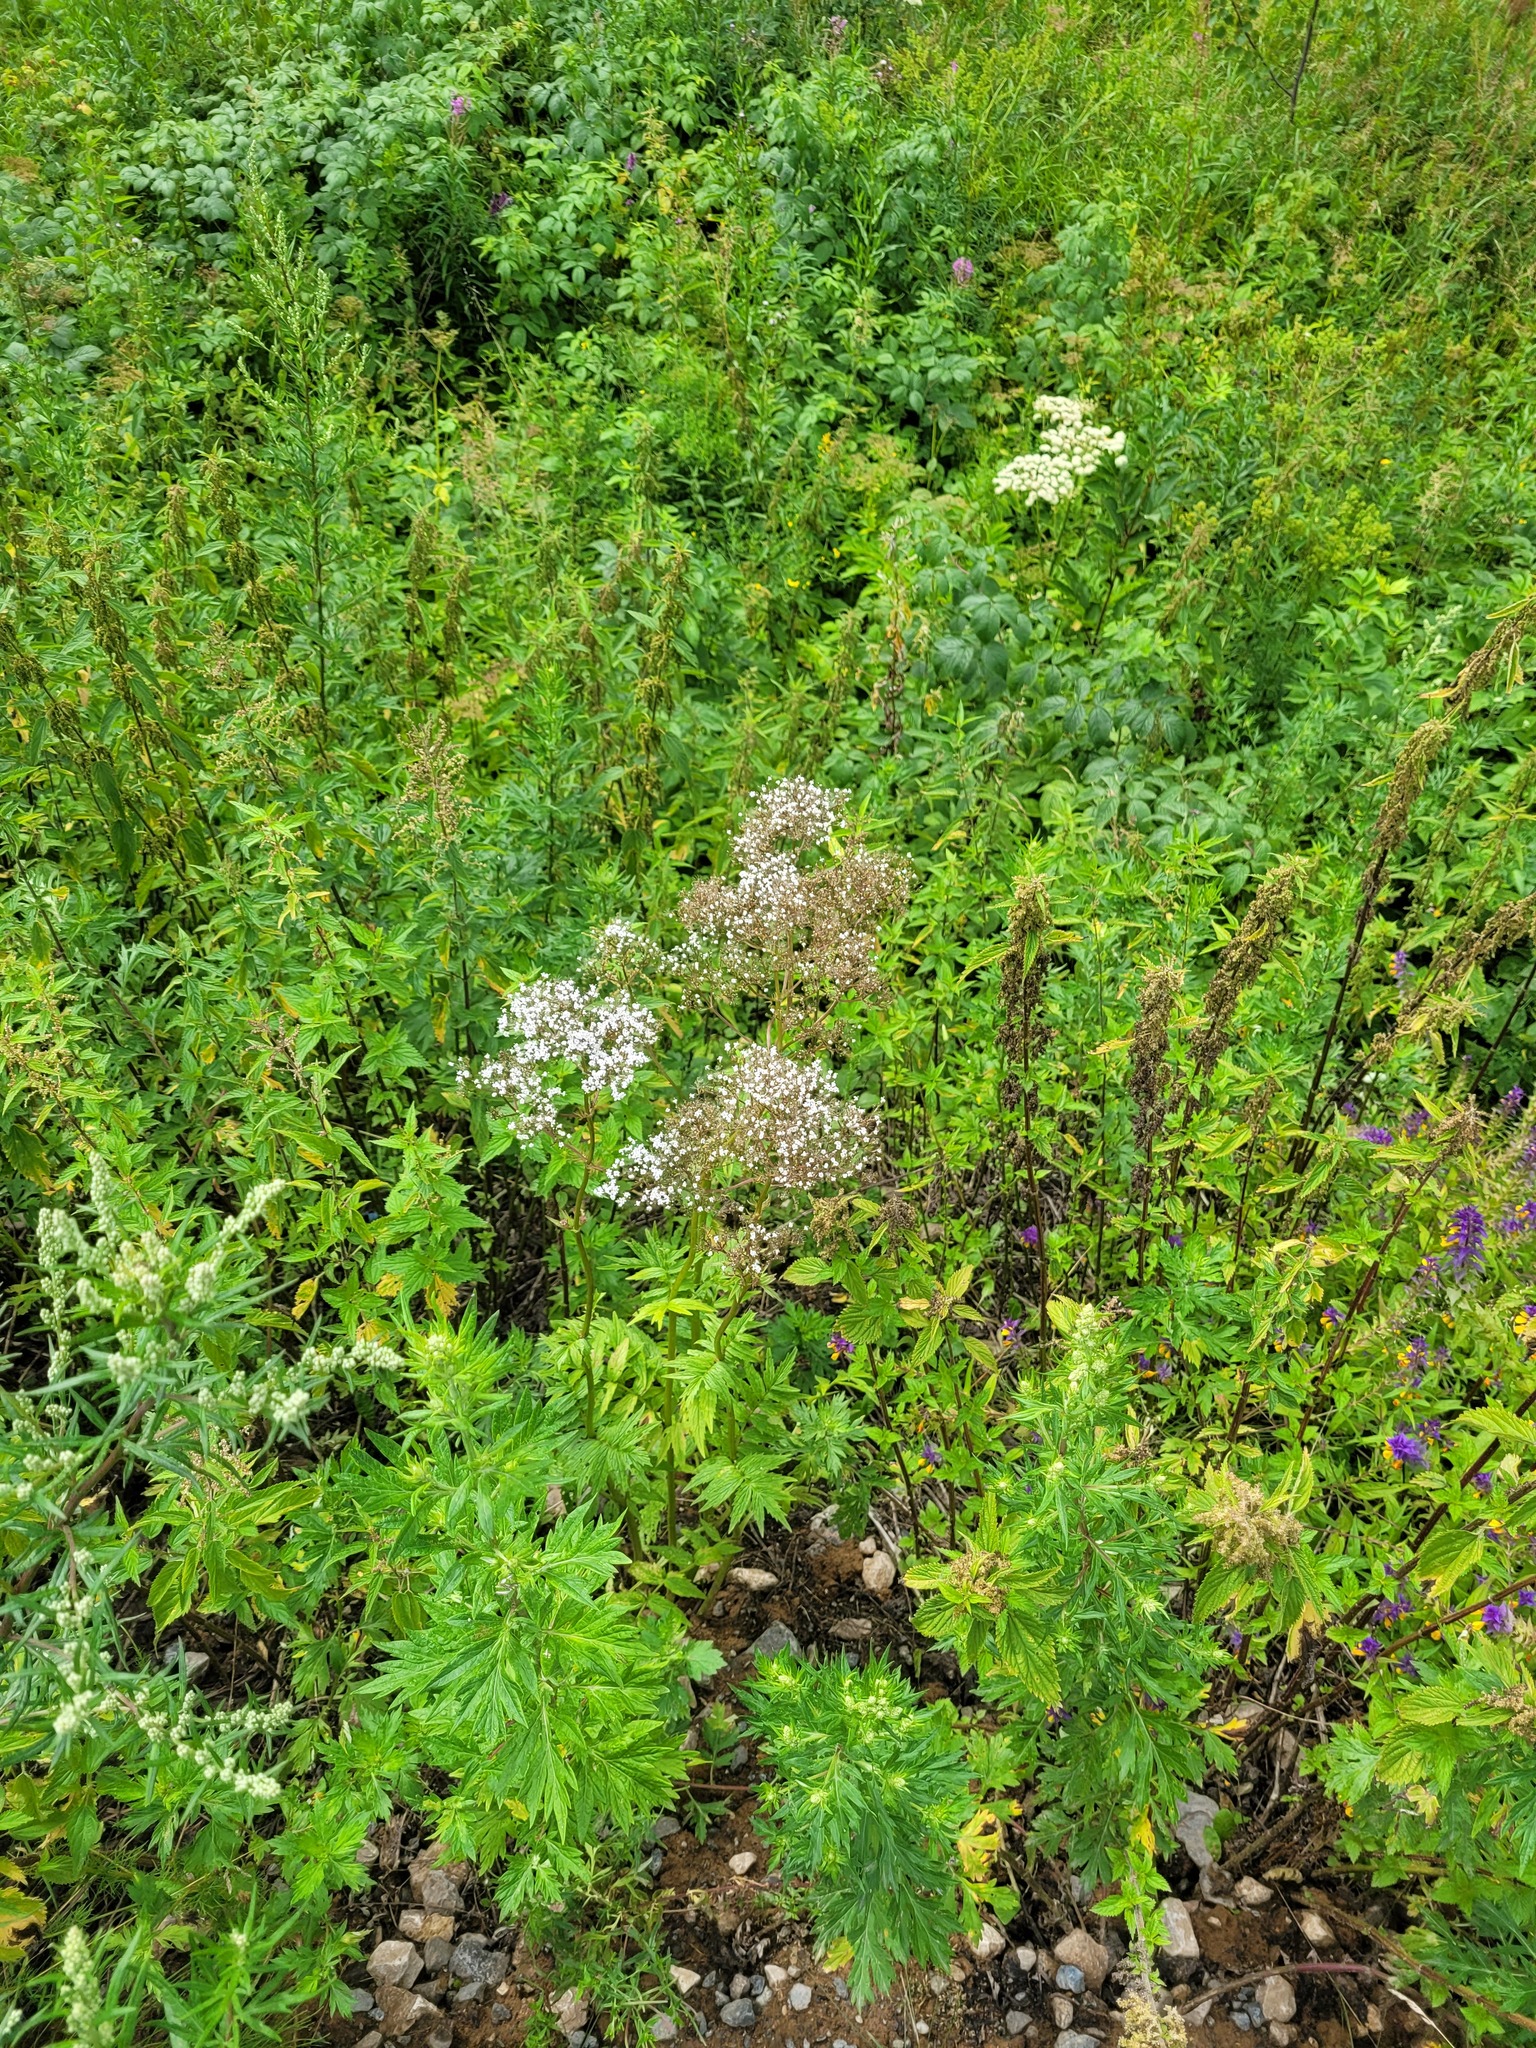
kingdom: Plantae
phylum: Tracheophyta
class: Magnoliopsida
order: Dipsacales
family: Caprifoliaceae
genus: Valeriana
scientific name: Valeriana officinalis
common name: Common valerian
